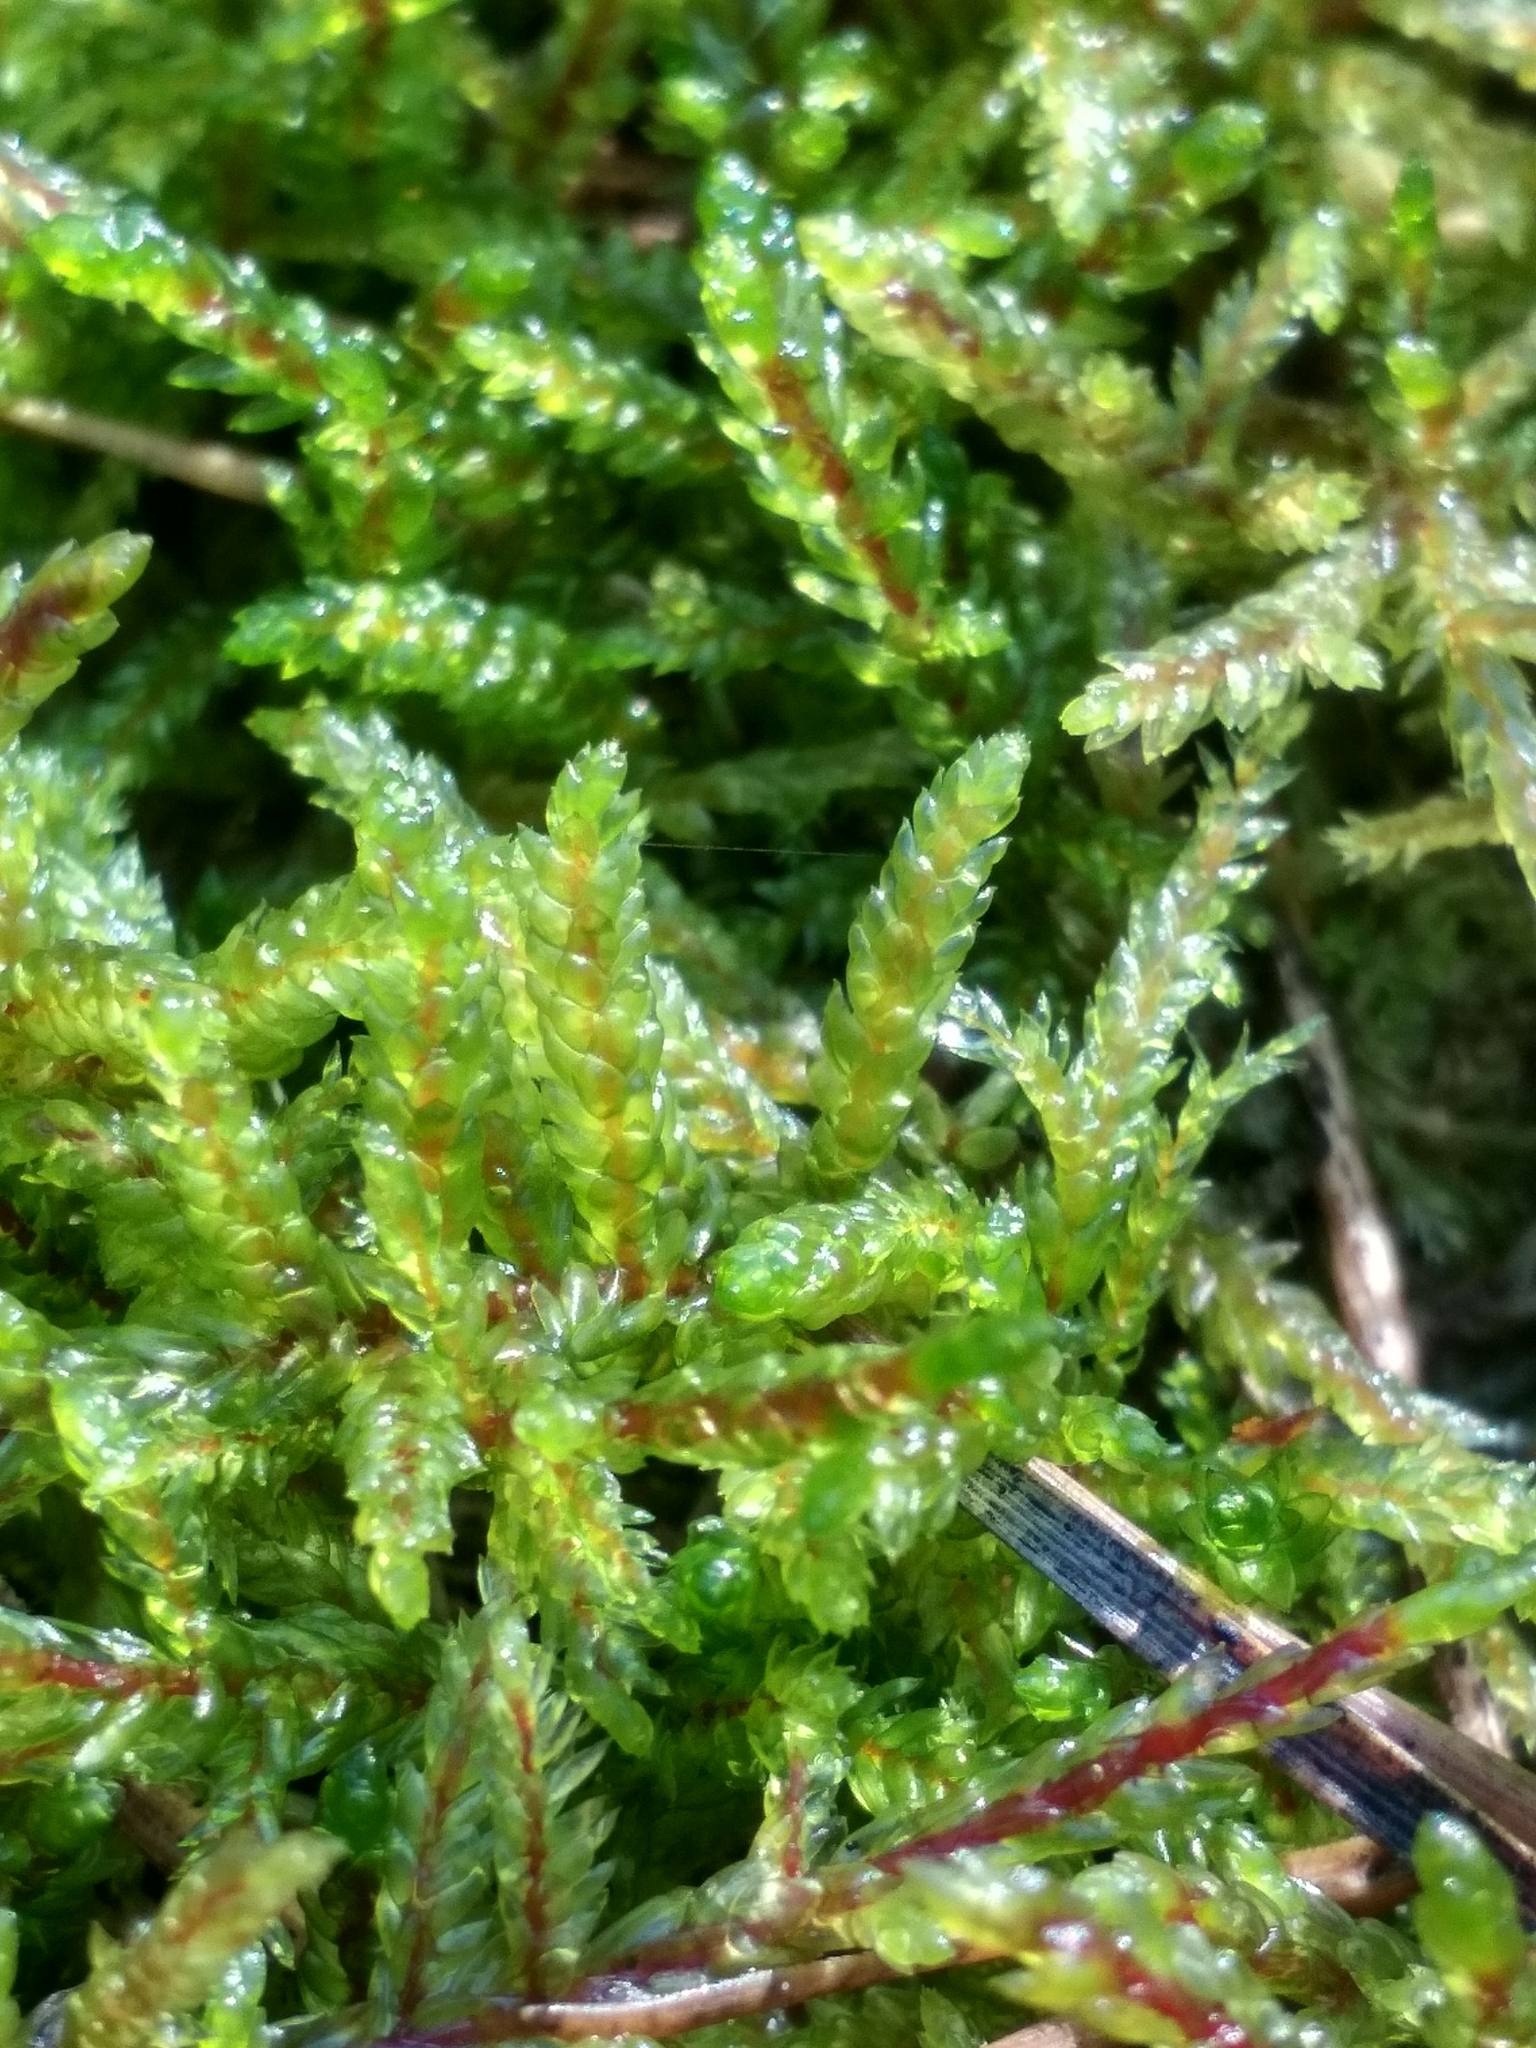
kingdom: Plantae
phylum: Bryophyta
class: Bryopsida
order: Hypnales
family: Hylocomiaceae
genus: Pleurozium
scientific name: Pleurozium schreberi
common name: Red-stemmed feather moss
